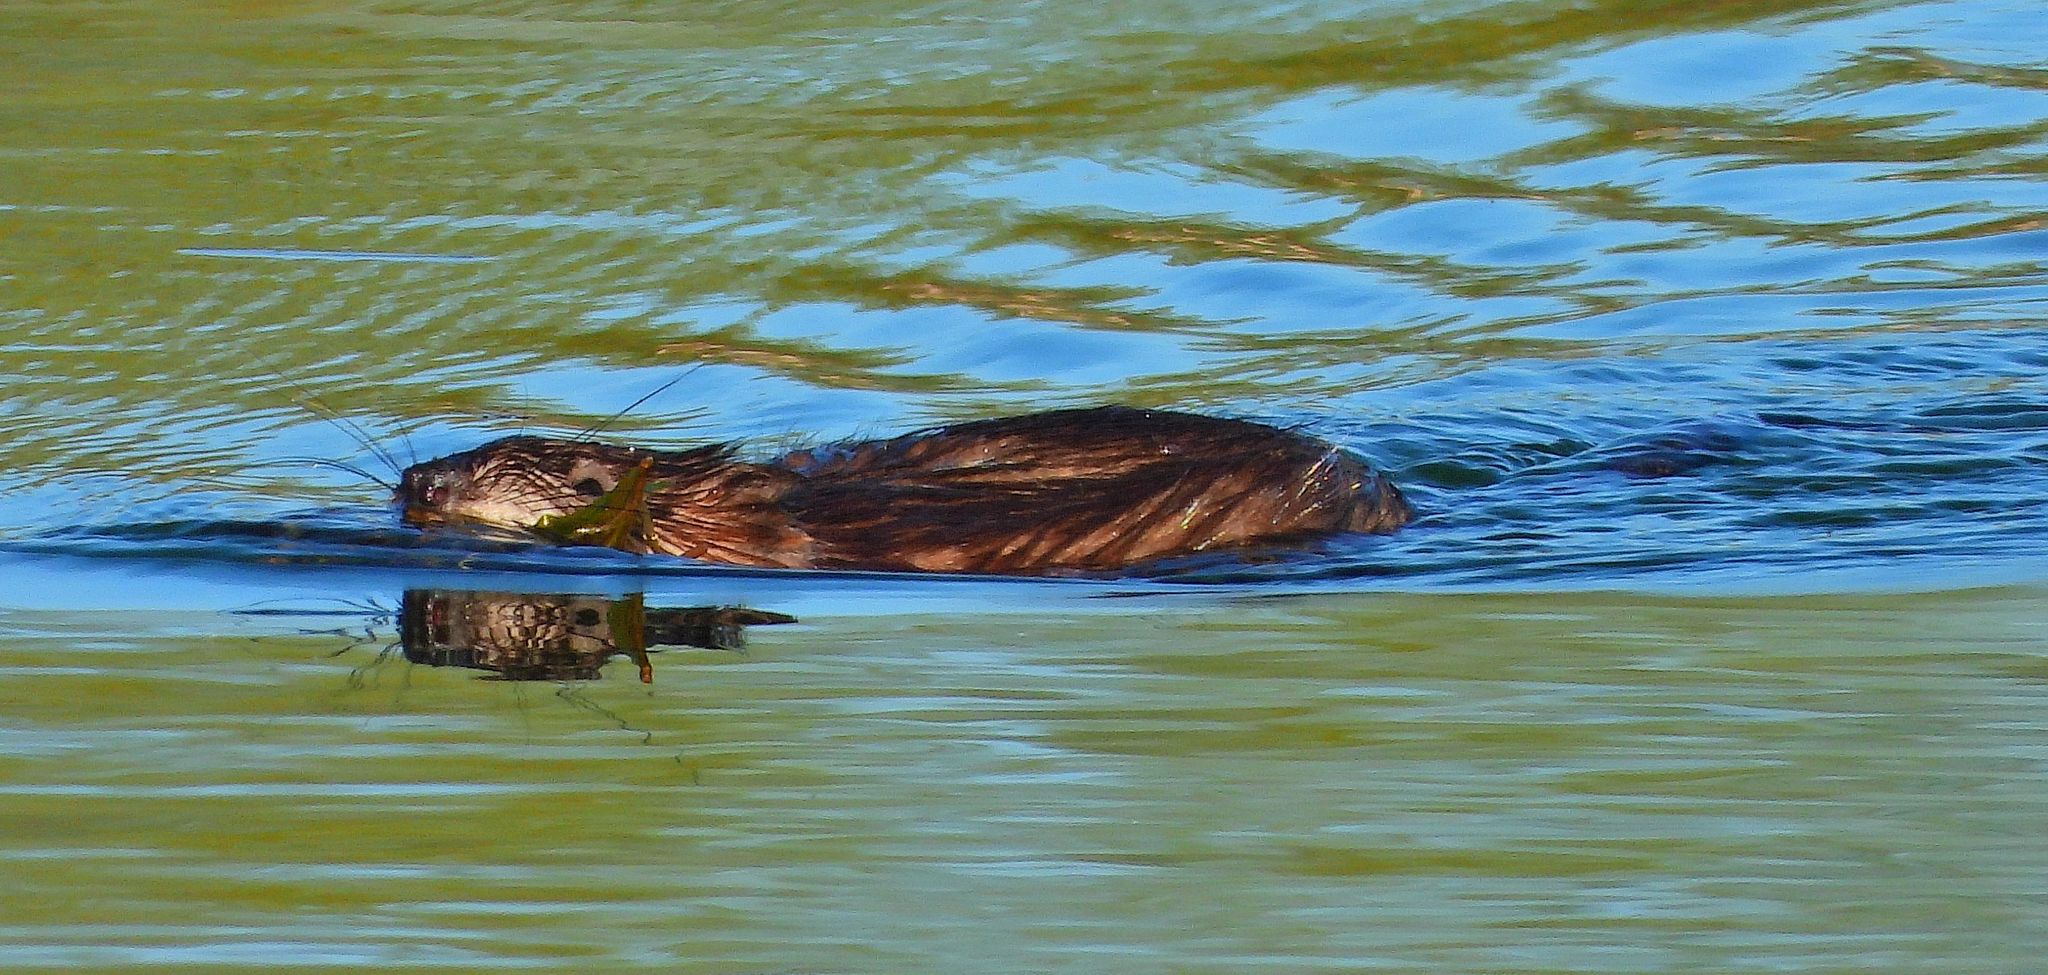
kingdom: Animalia
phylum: Chordata
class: Mammalia
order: Rodentia
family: Cricetidae
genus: Ondatra
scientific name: Ondatra zibethicus
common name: Muskrat
